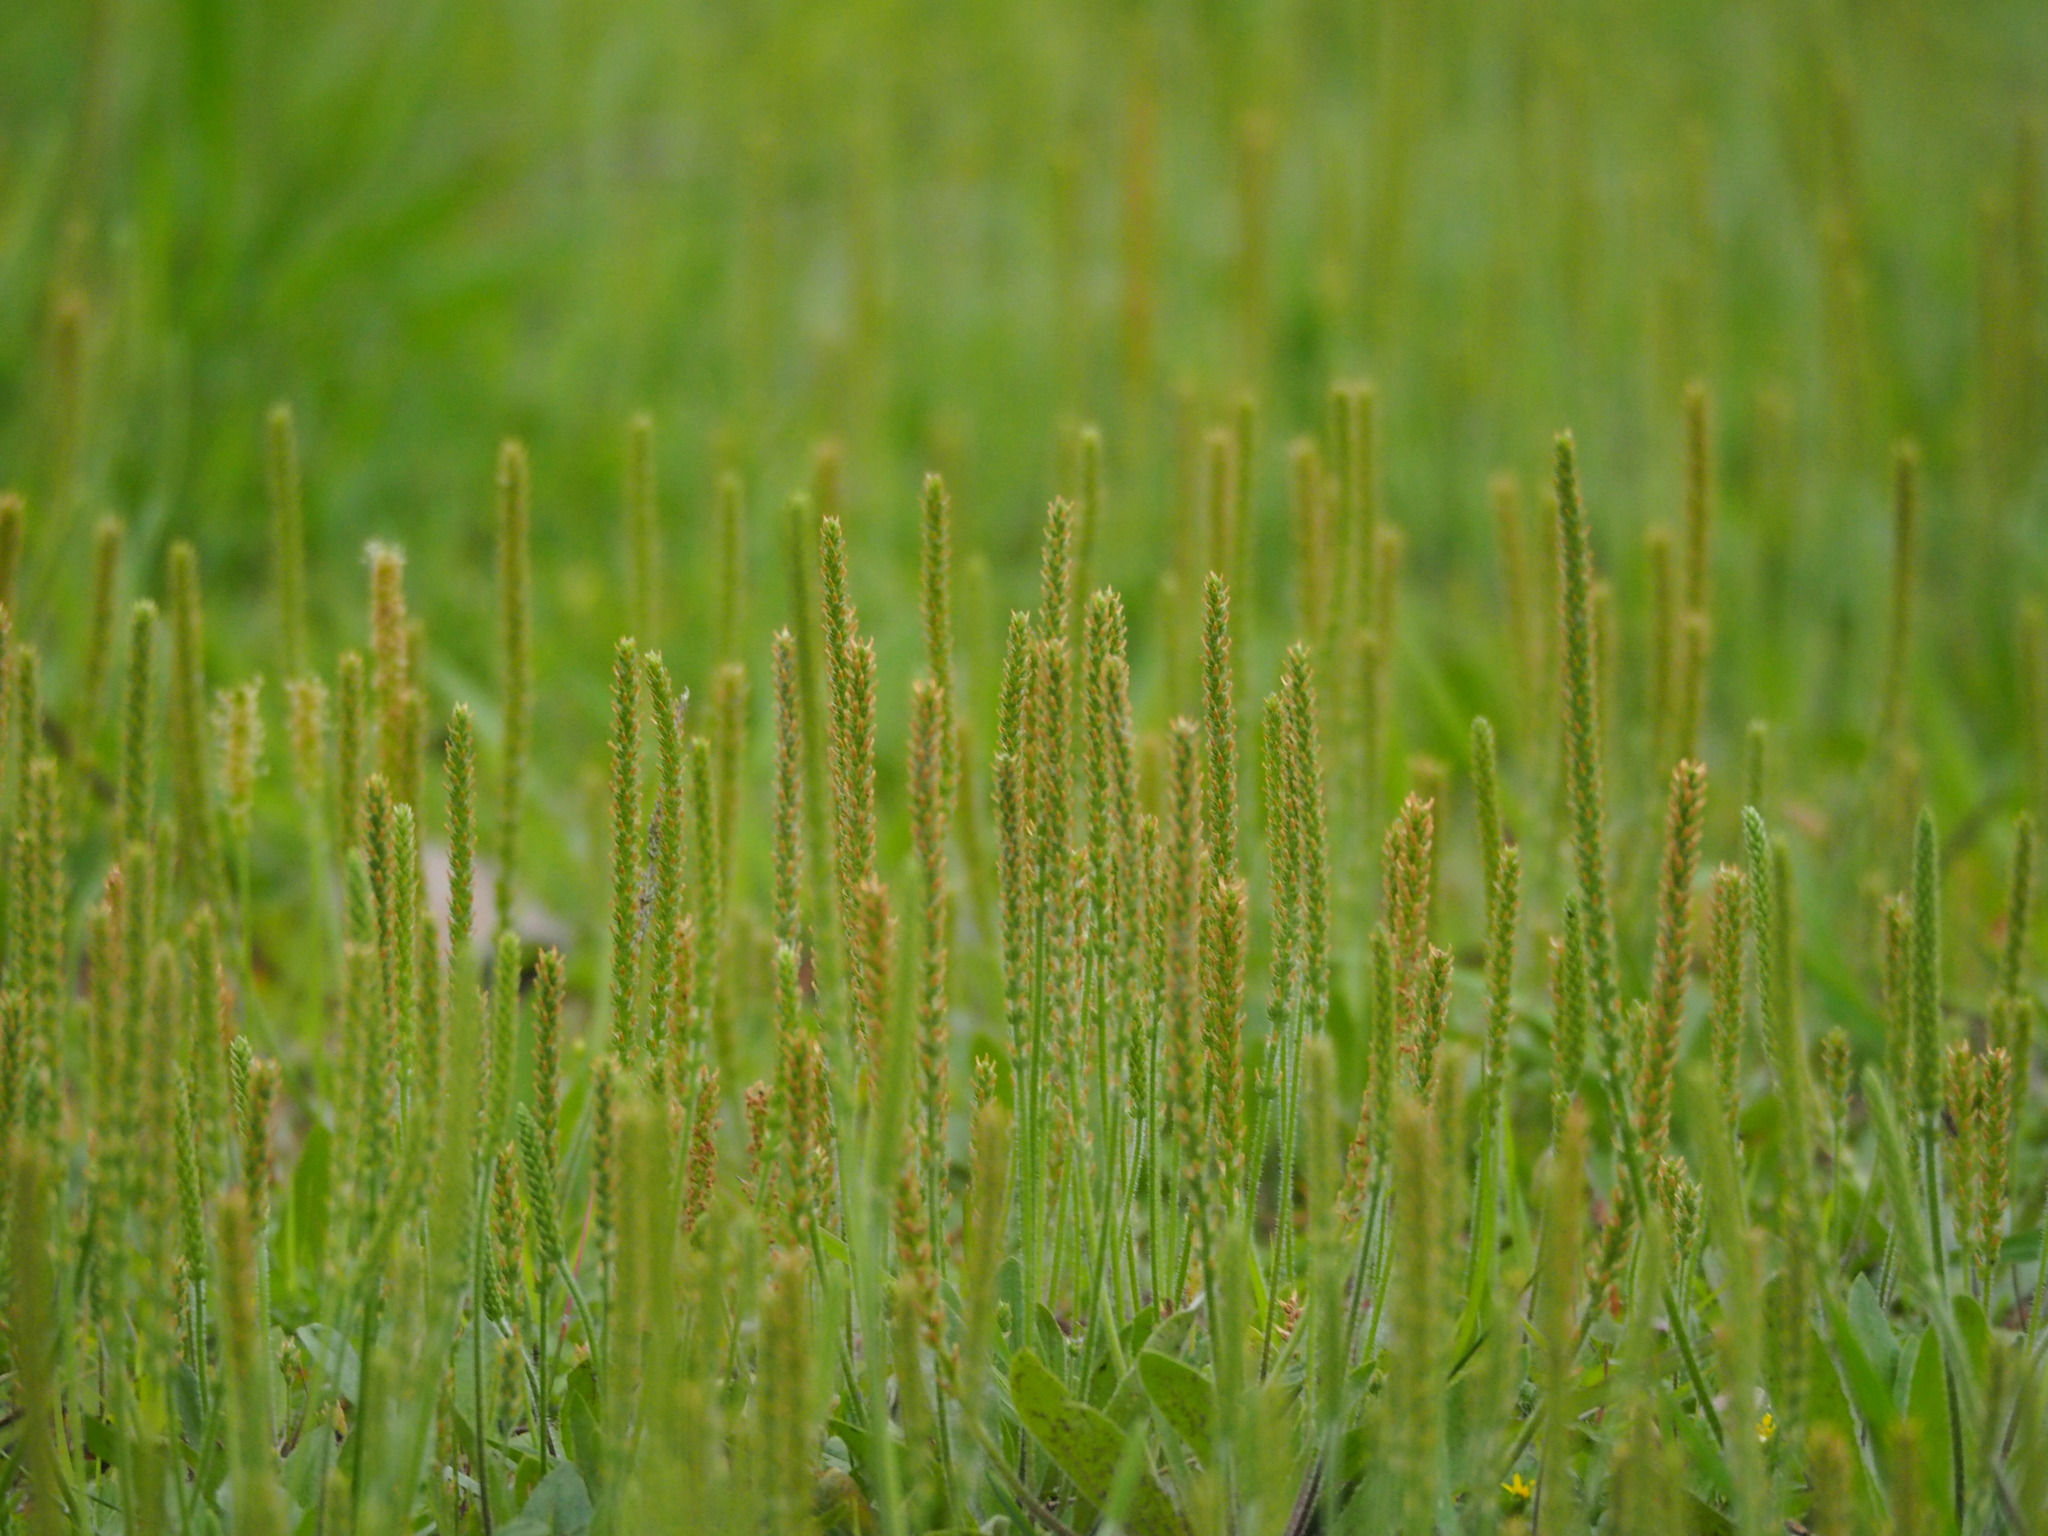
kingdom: Plantae
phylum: Tracheophyta
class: Magnoliopsida
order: Lamiales
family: Plantaginaceae
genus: Plantago
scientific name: Plantago virginica
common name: Hoary plantain
